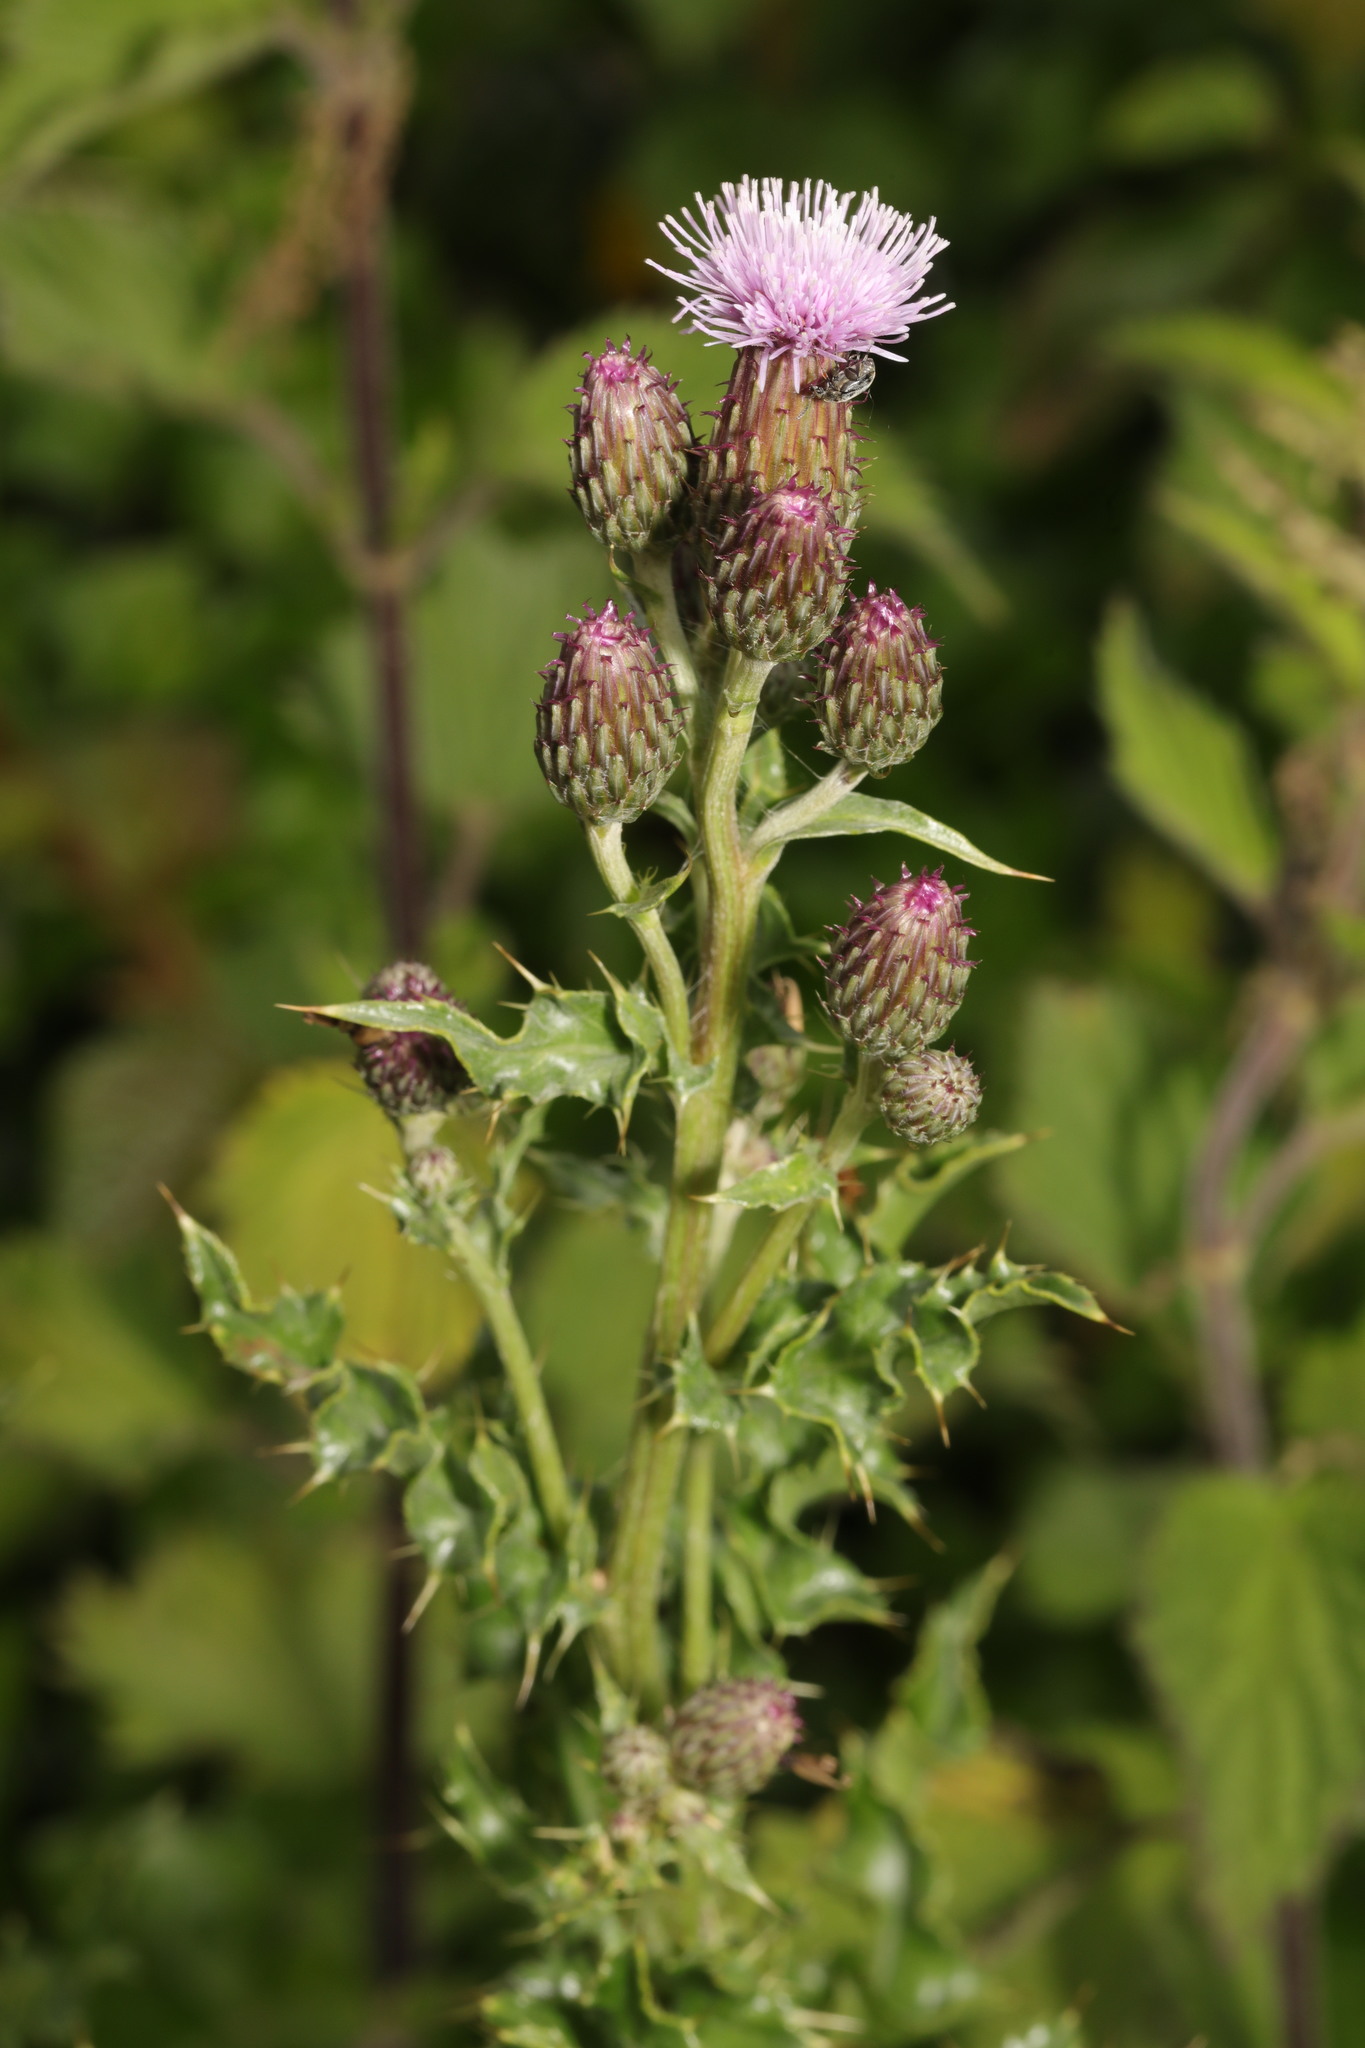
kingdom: Plantae
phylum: Tracheophyta
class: Magnoliopsida
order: Asterales
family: Asteraceae
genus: Cirsium
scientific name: Cirsium arvense
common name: Creeping thistle
